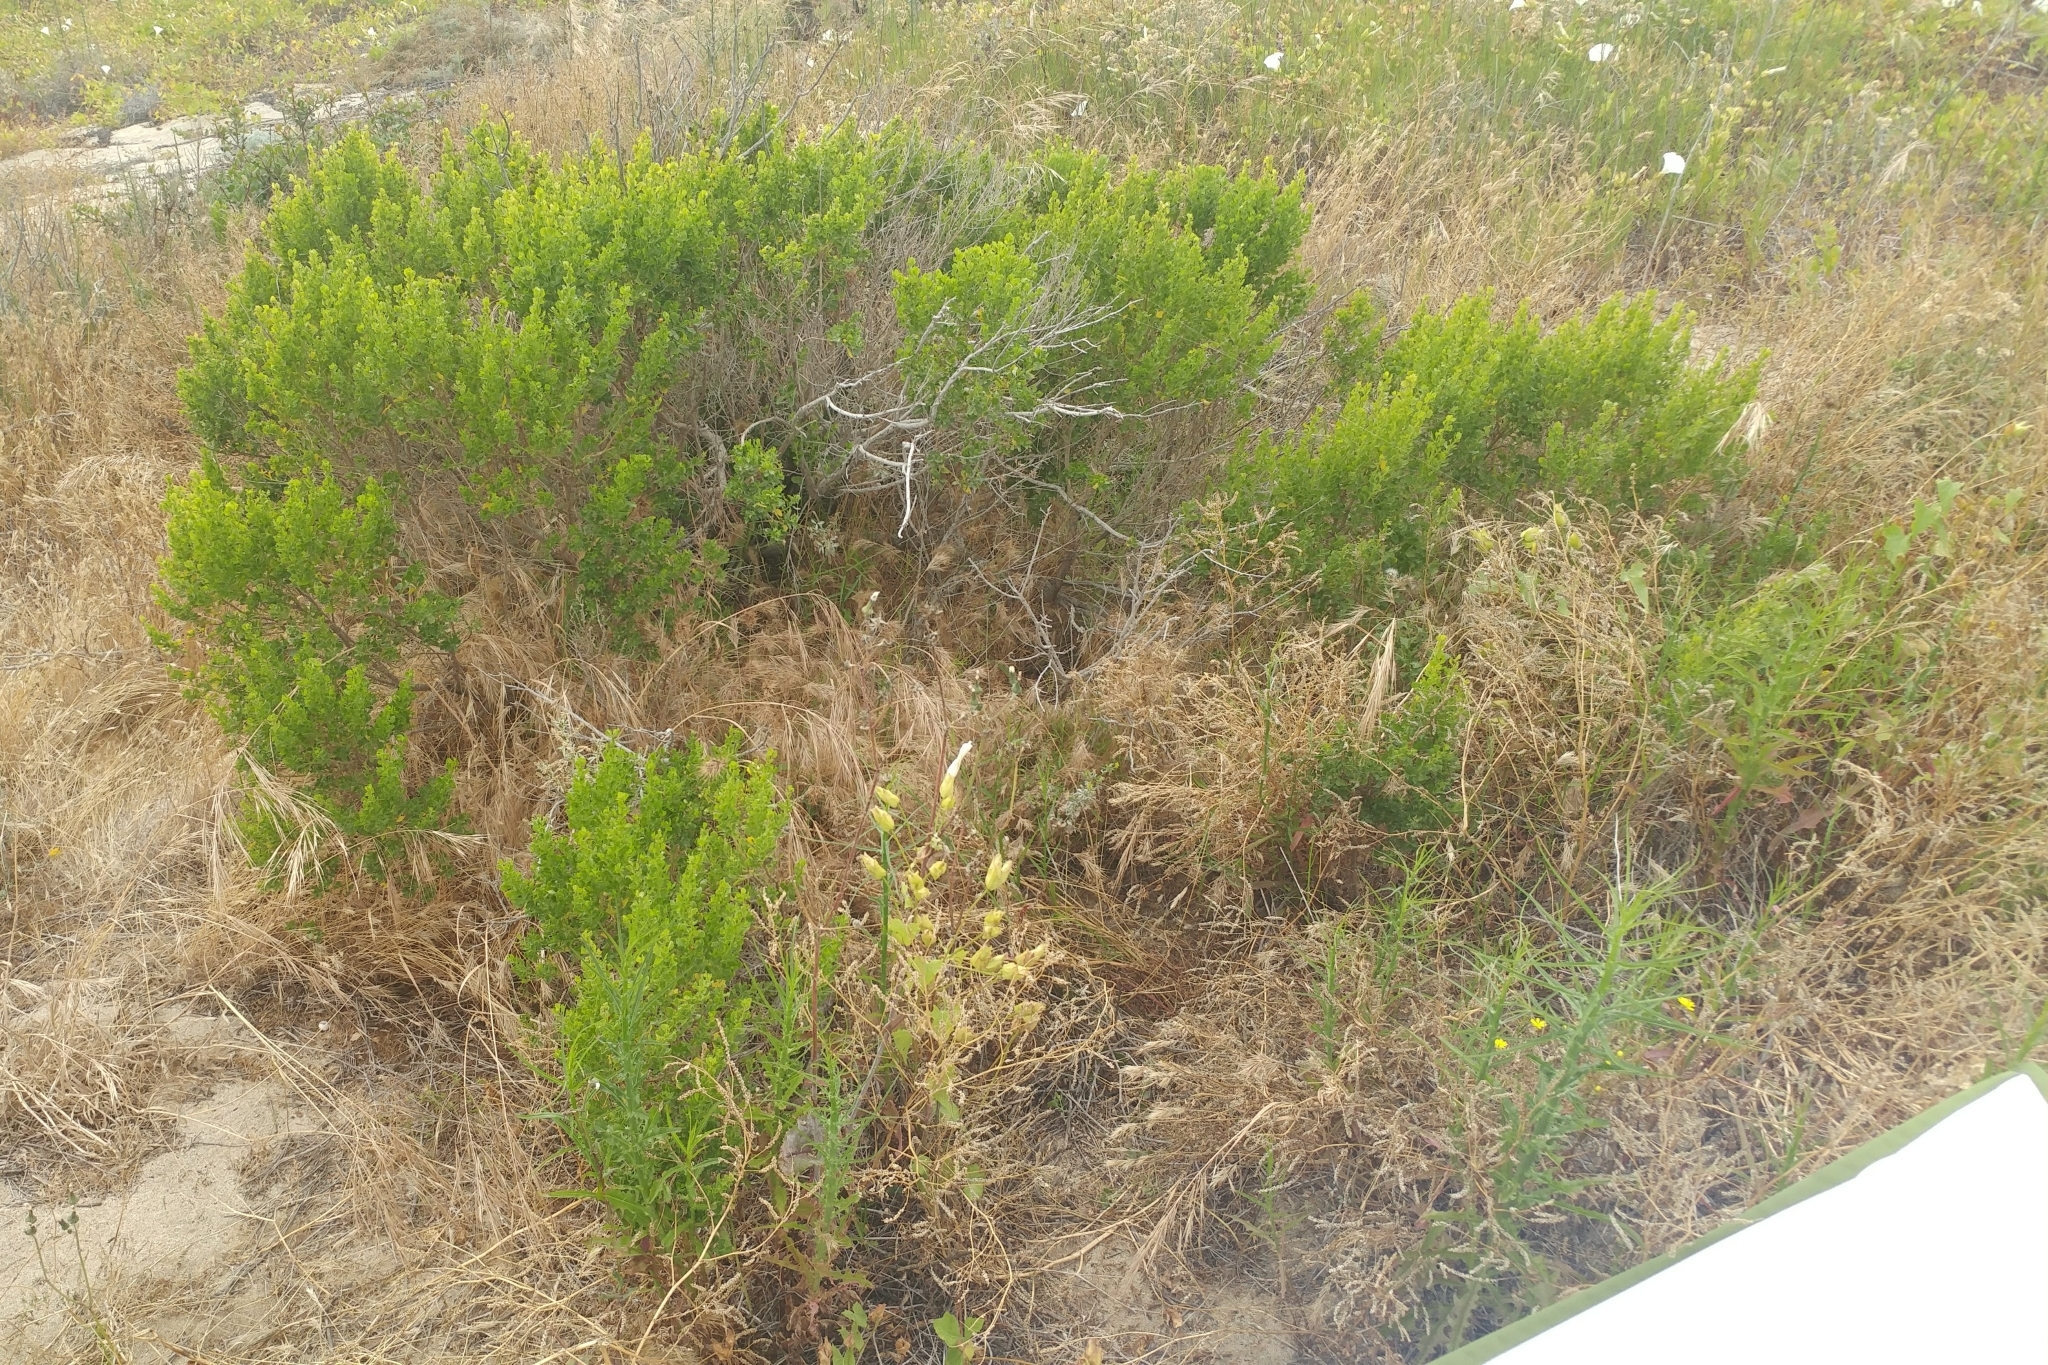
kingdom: Plantae
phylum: Tracheophyta
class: Magnoliopsida
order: Asterales
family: Asteraceae
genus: Baccharis
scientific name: Baccharis pilularis
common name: Coyotebrush
